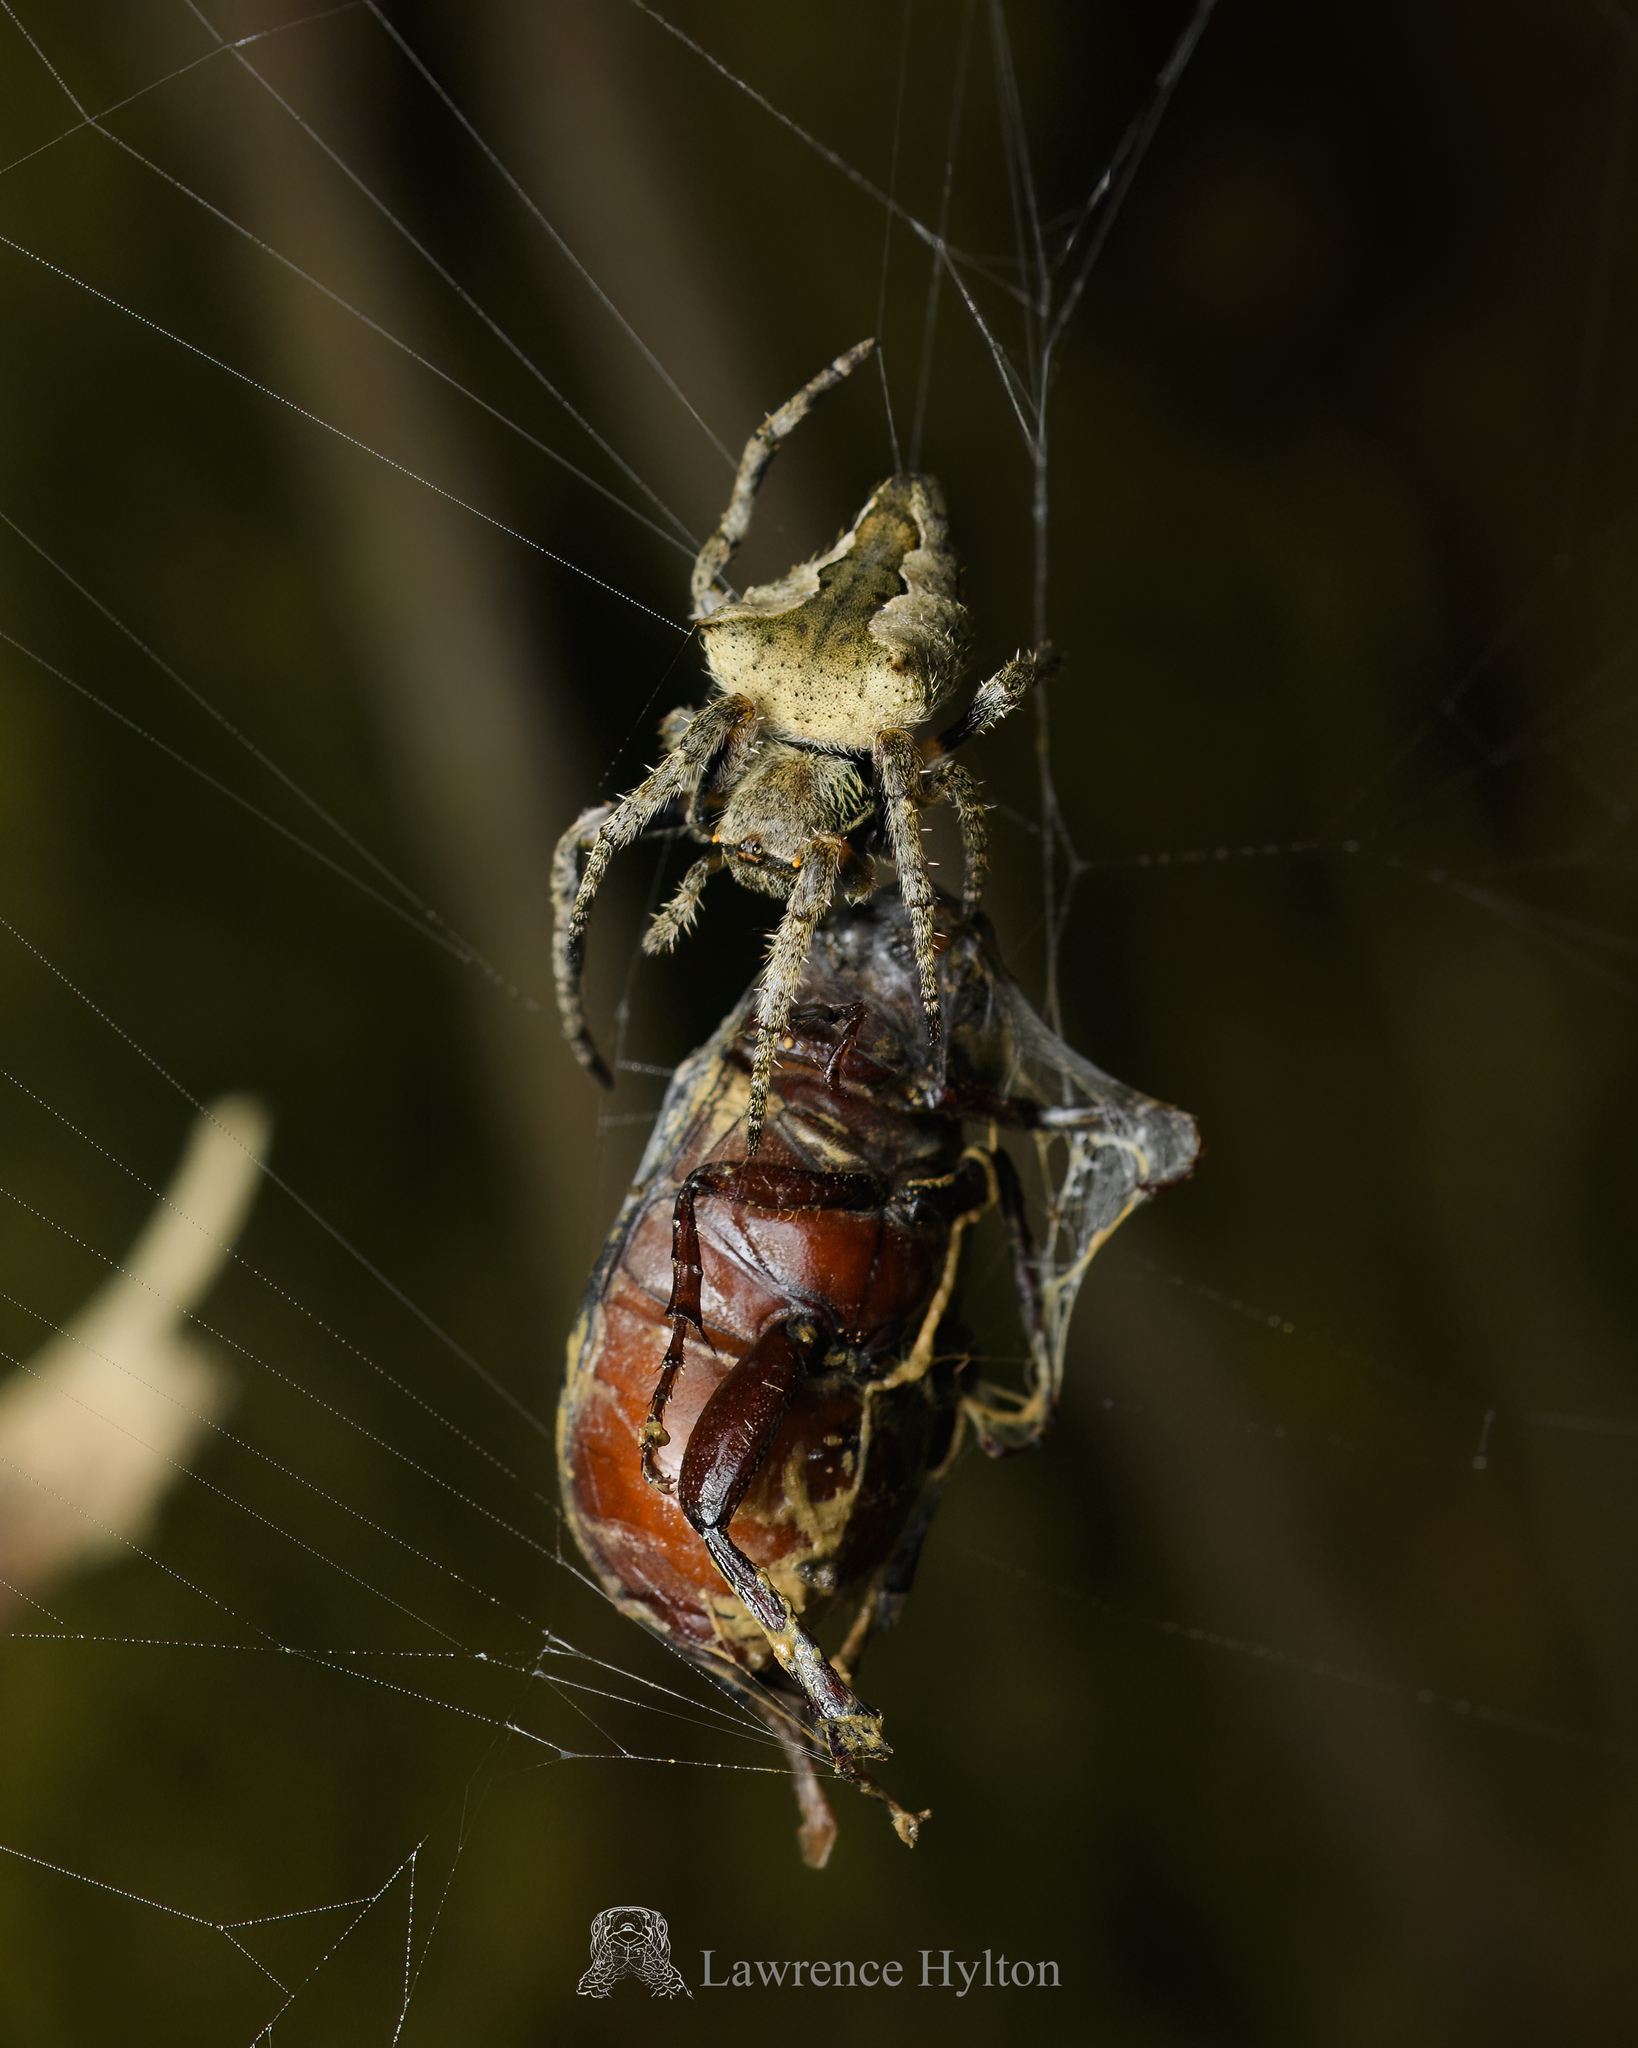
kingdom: Animalia
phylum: Arthropoda
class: Arachnida
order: Araneae
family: Araneidae
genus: Parawixia
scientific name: Parawixia dehaani
